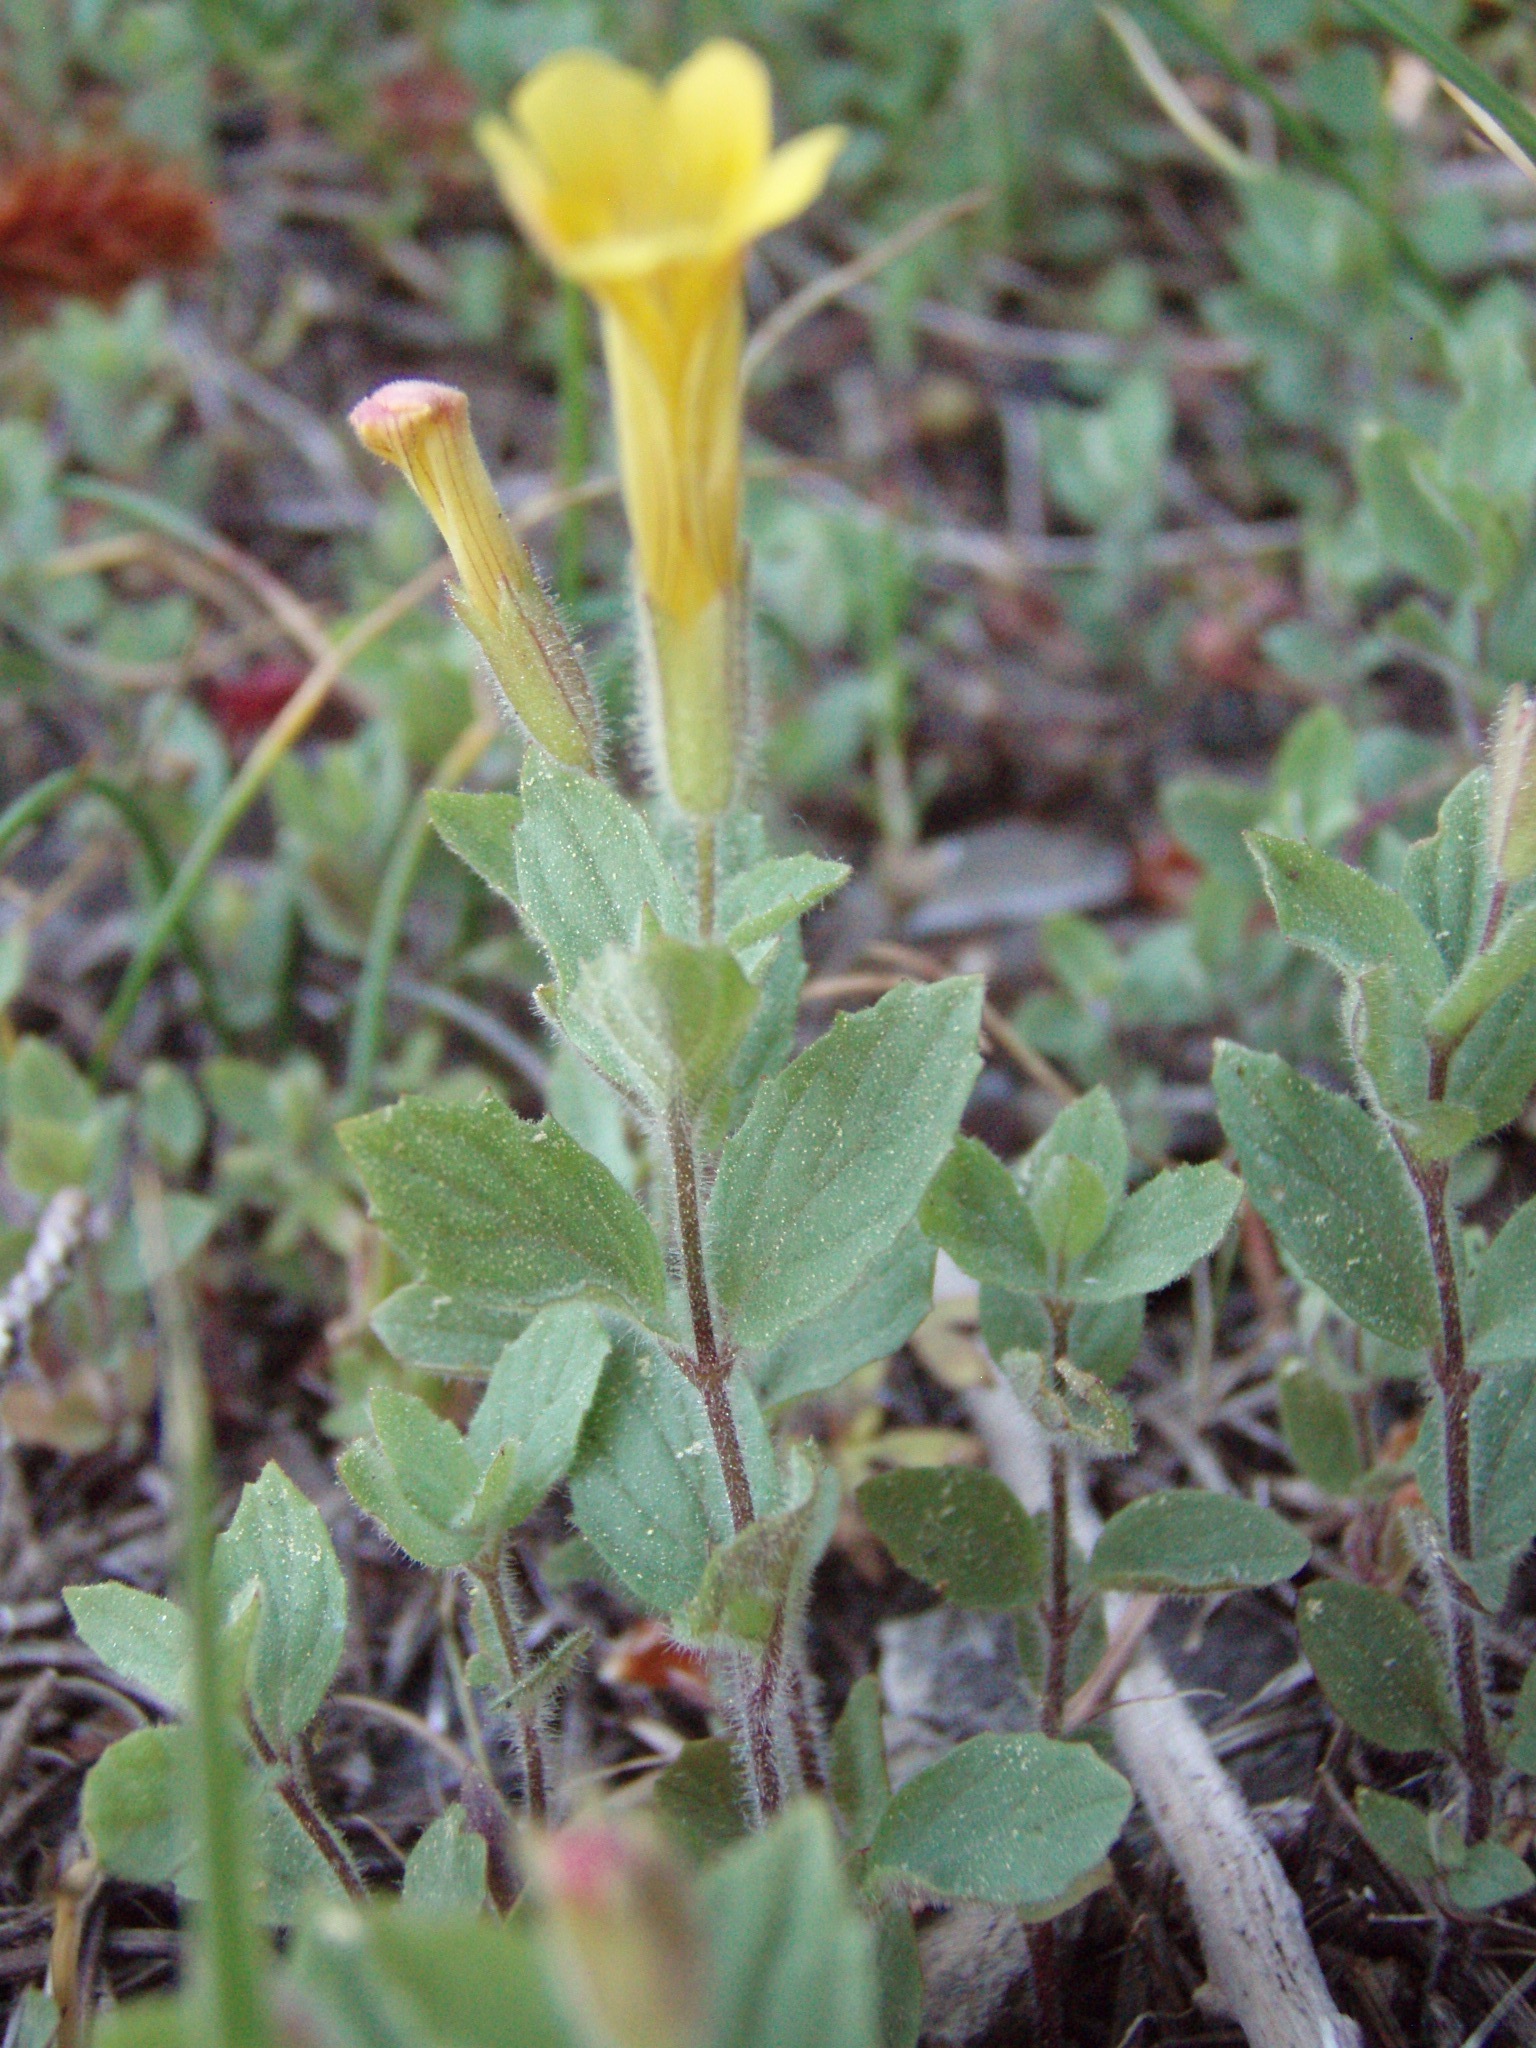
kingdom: Plantae
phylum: Tracheophyta
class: Magnoliopsida
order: Lamiales
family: Phrymaceae
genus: Erythranthe
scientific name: Erythranthe moschata
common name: Muskflower
